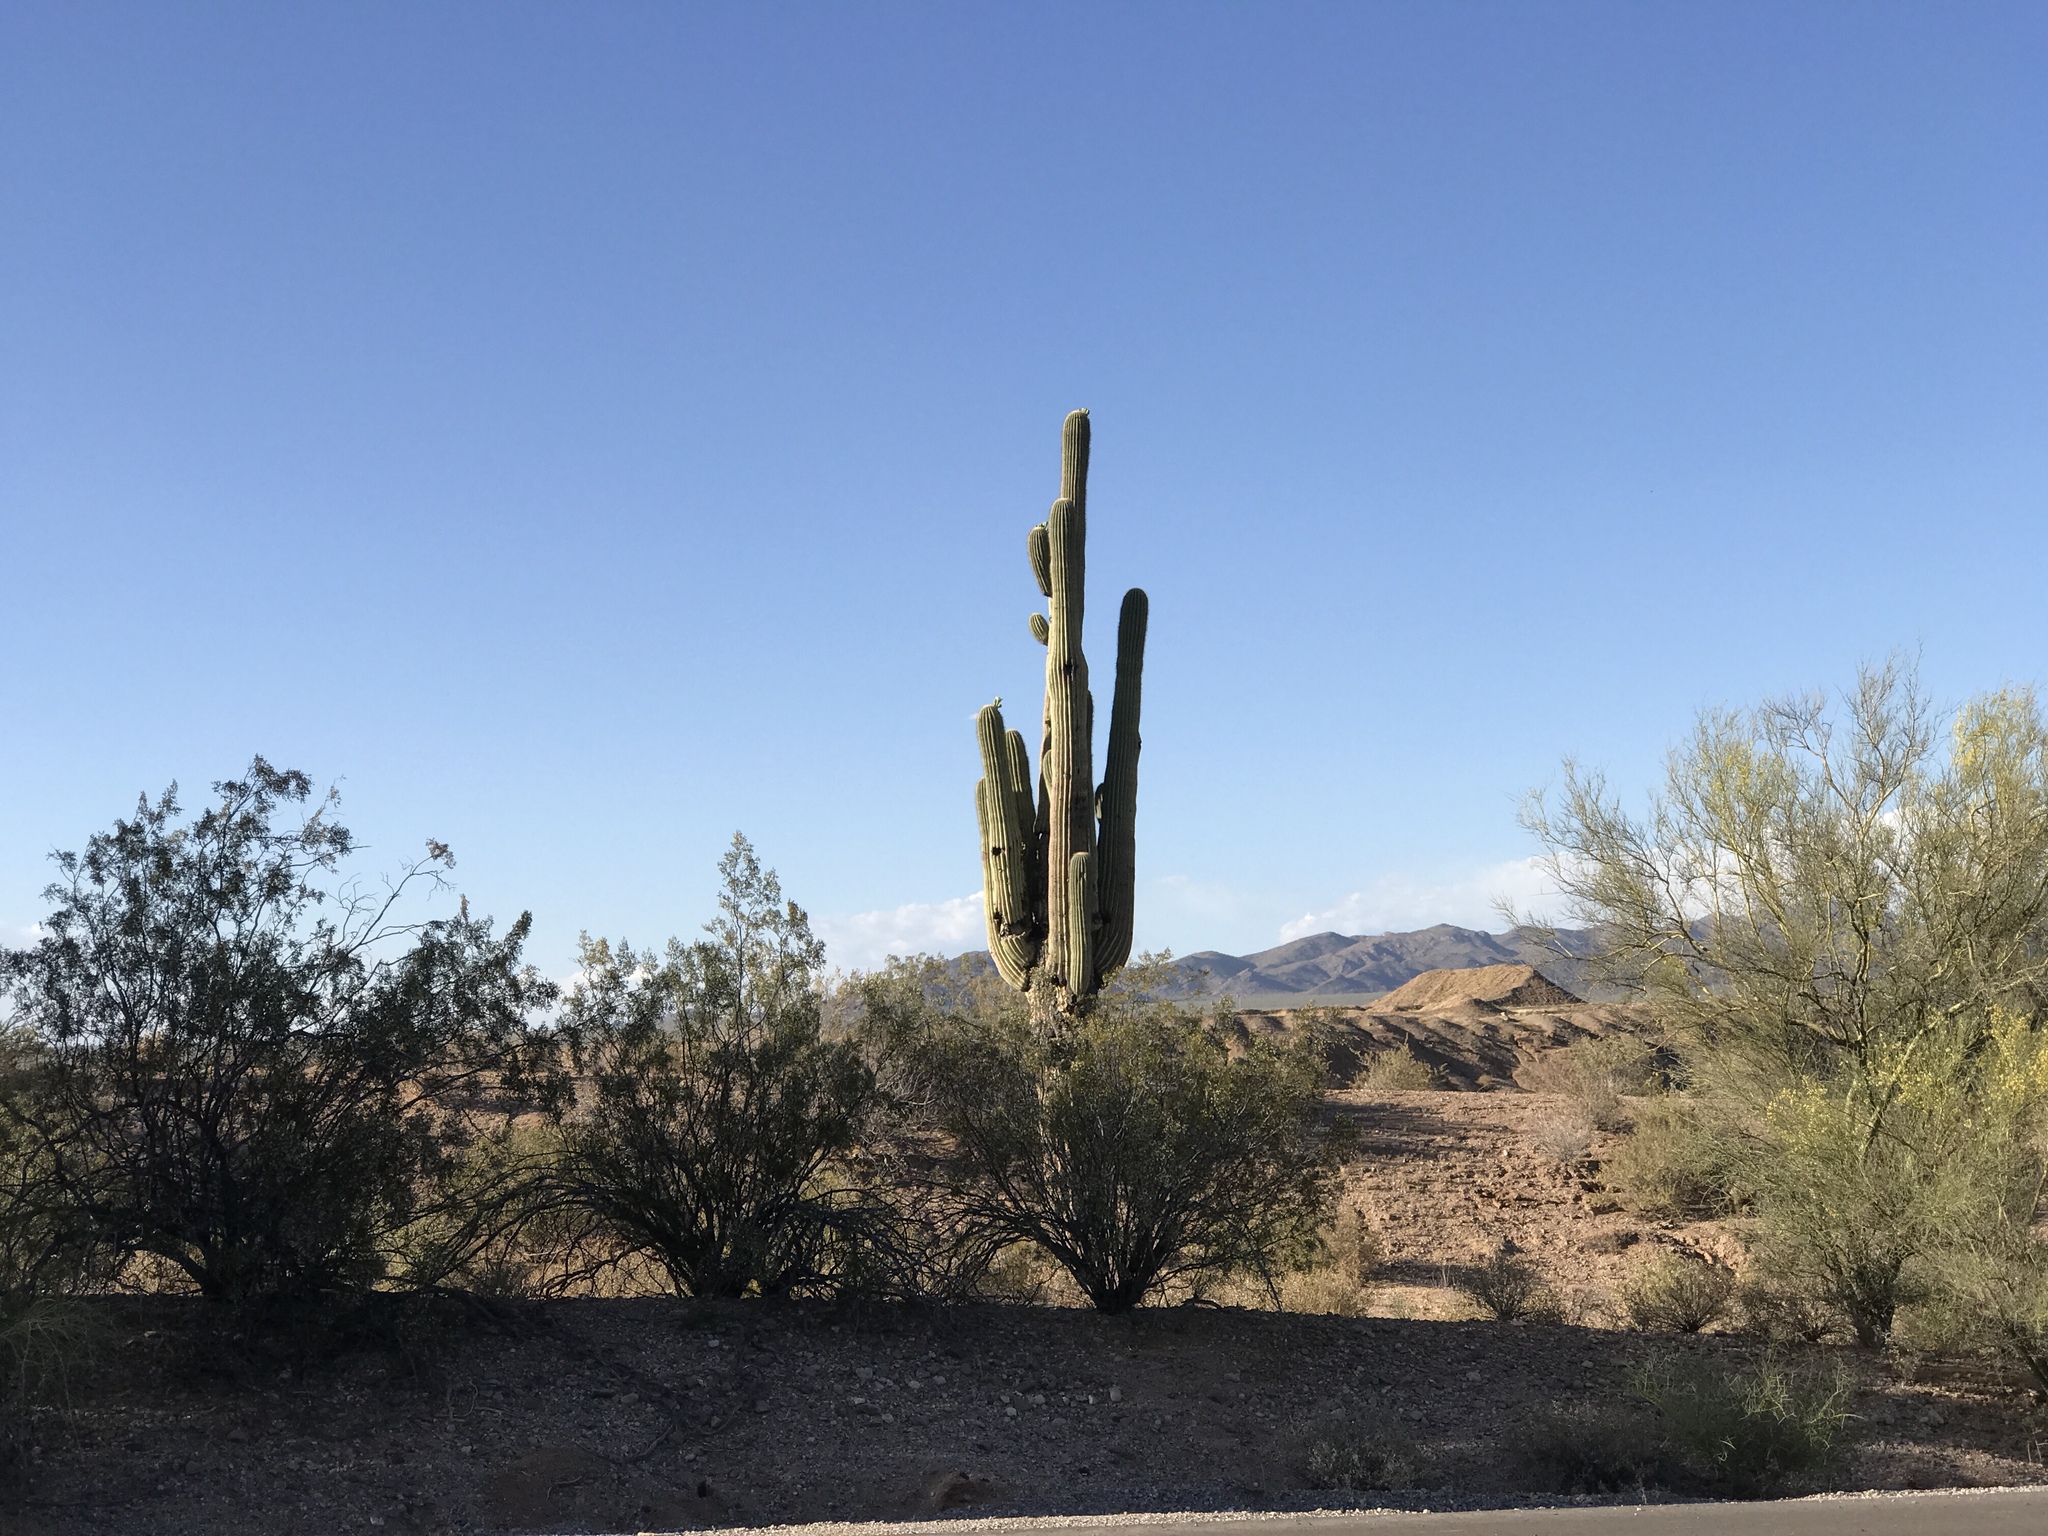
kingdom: Plantae
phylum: Tracheophyta
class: Magnoliopsida
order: Caryophyllales
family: Cactaceae
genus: Carnegiea
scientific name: Carnegiea gigantea
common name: Saguaro
